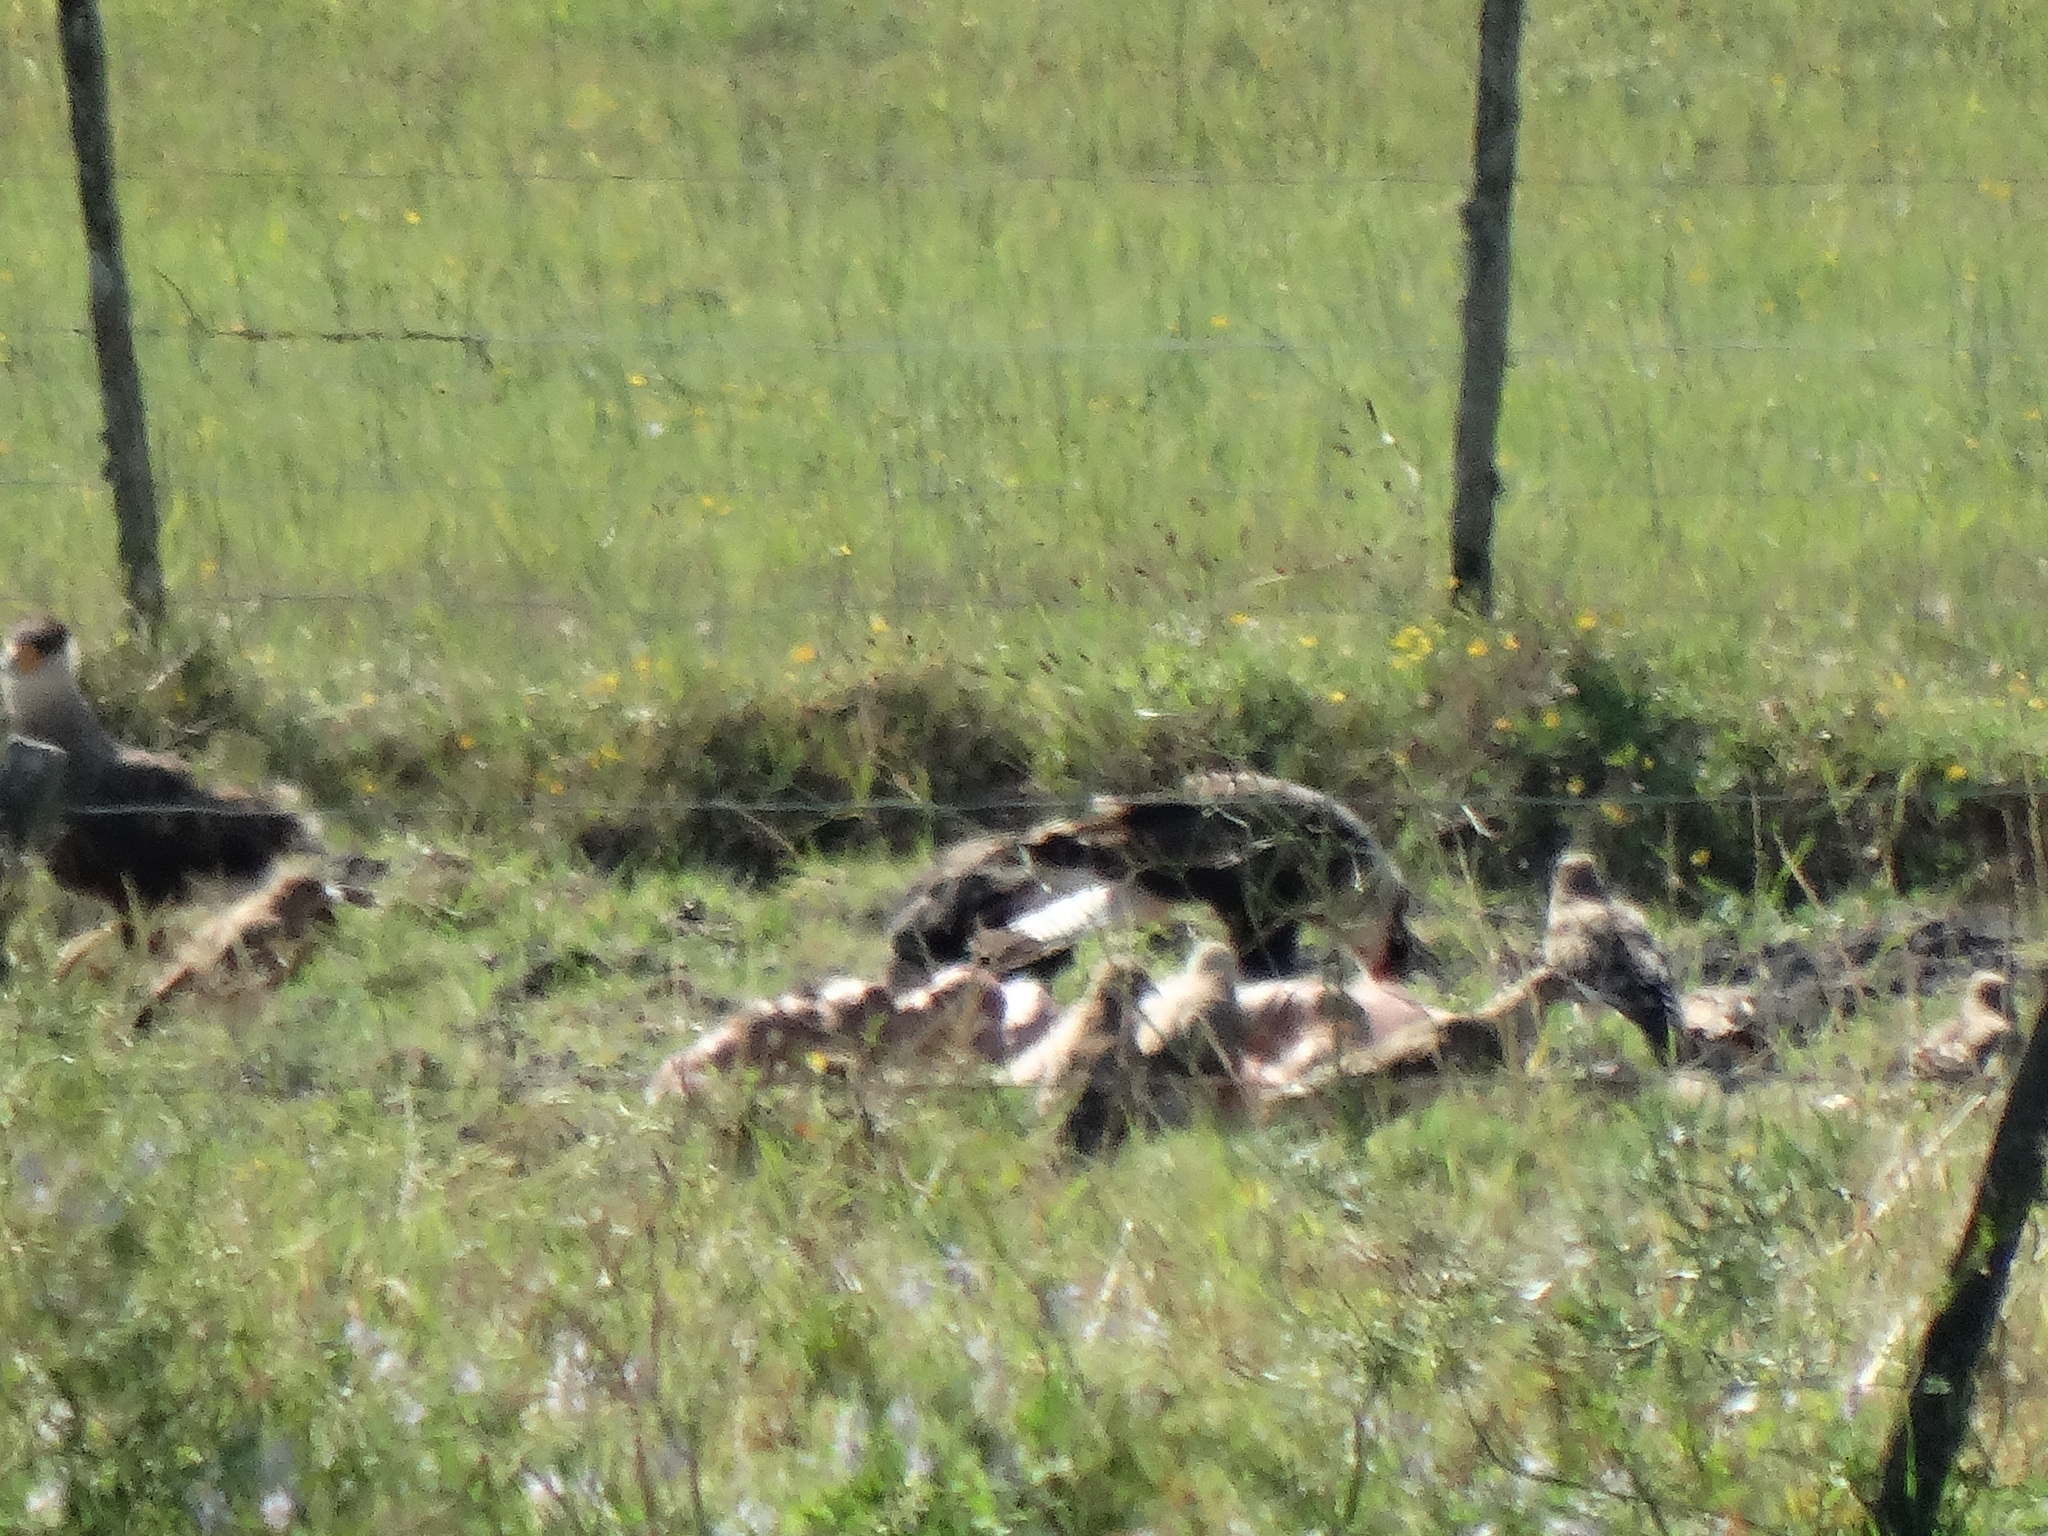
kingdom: Animalia
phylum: Chordata
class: Aves
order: Falconiformes
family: Falconidae
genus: Caracara
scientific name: Caracara plancus
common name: Southern caracara
